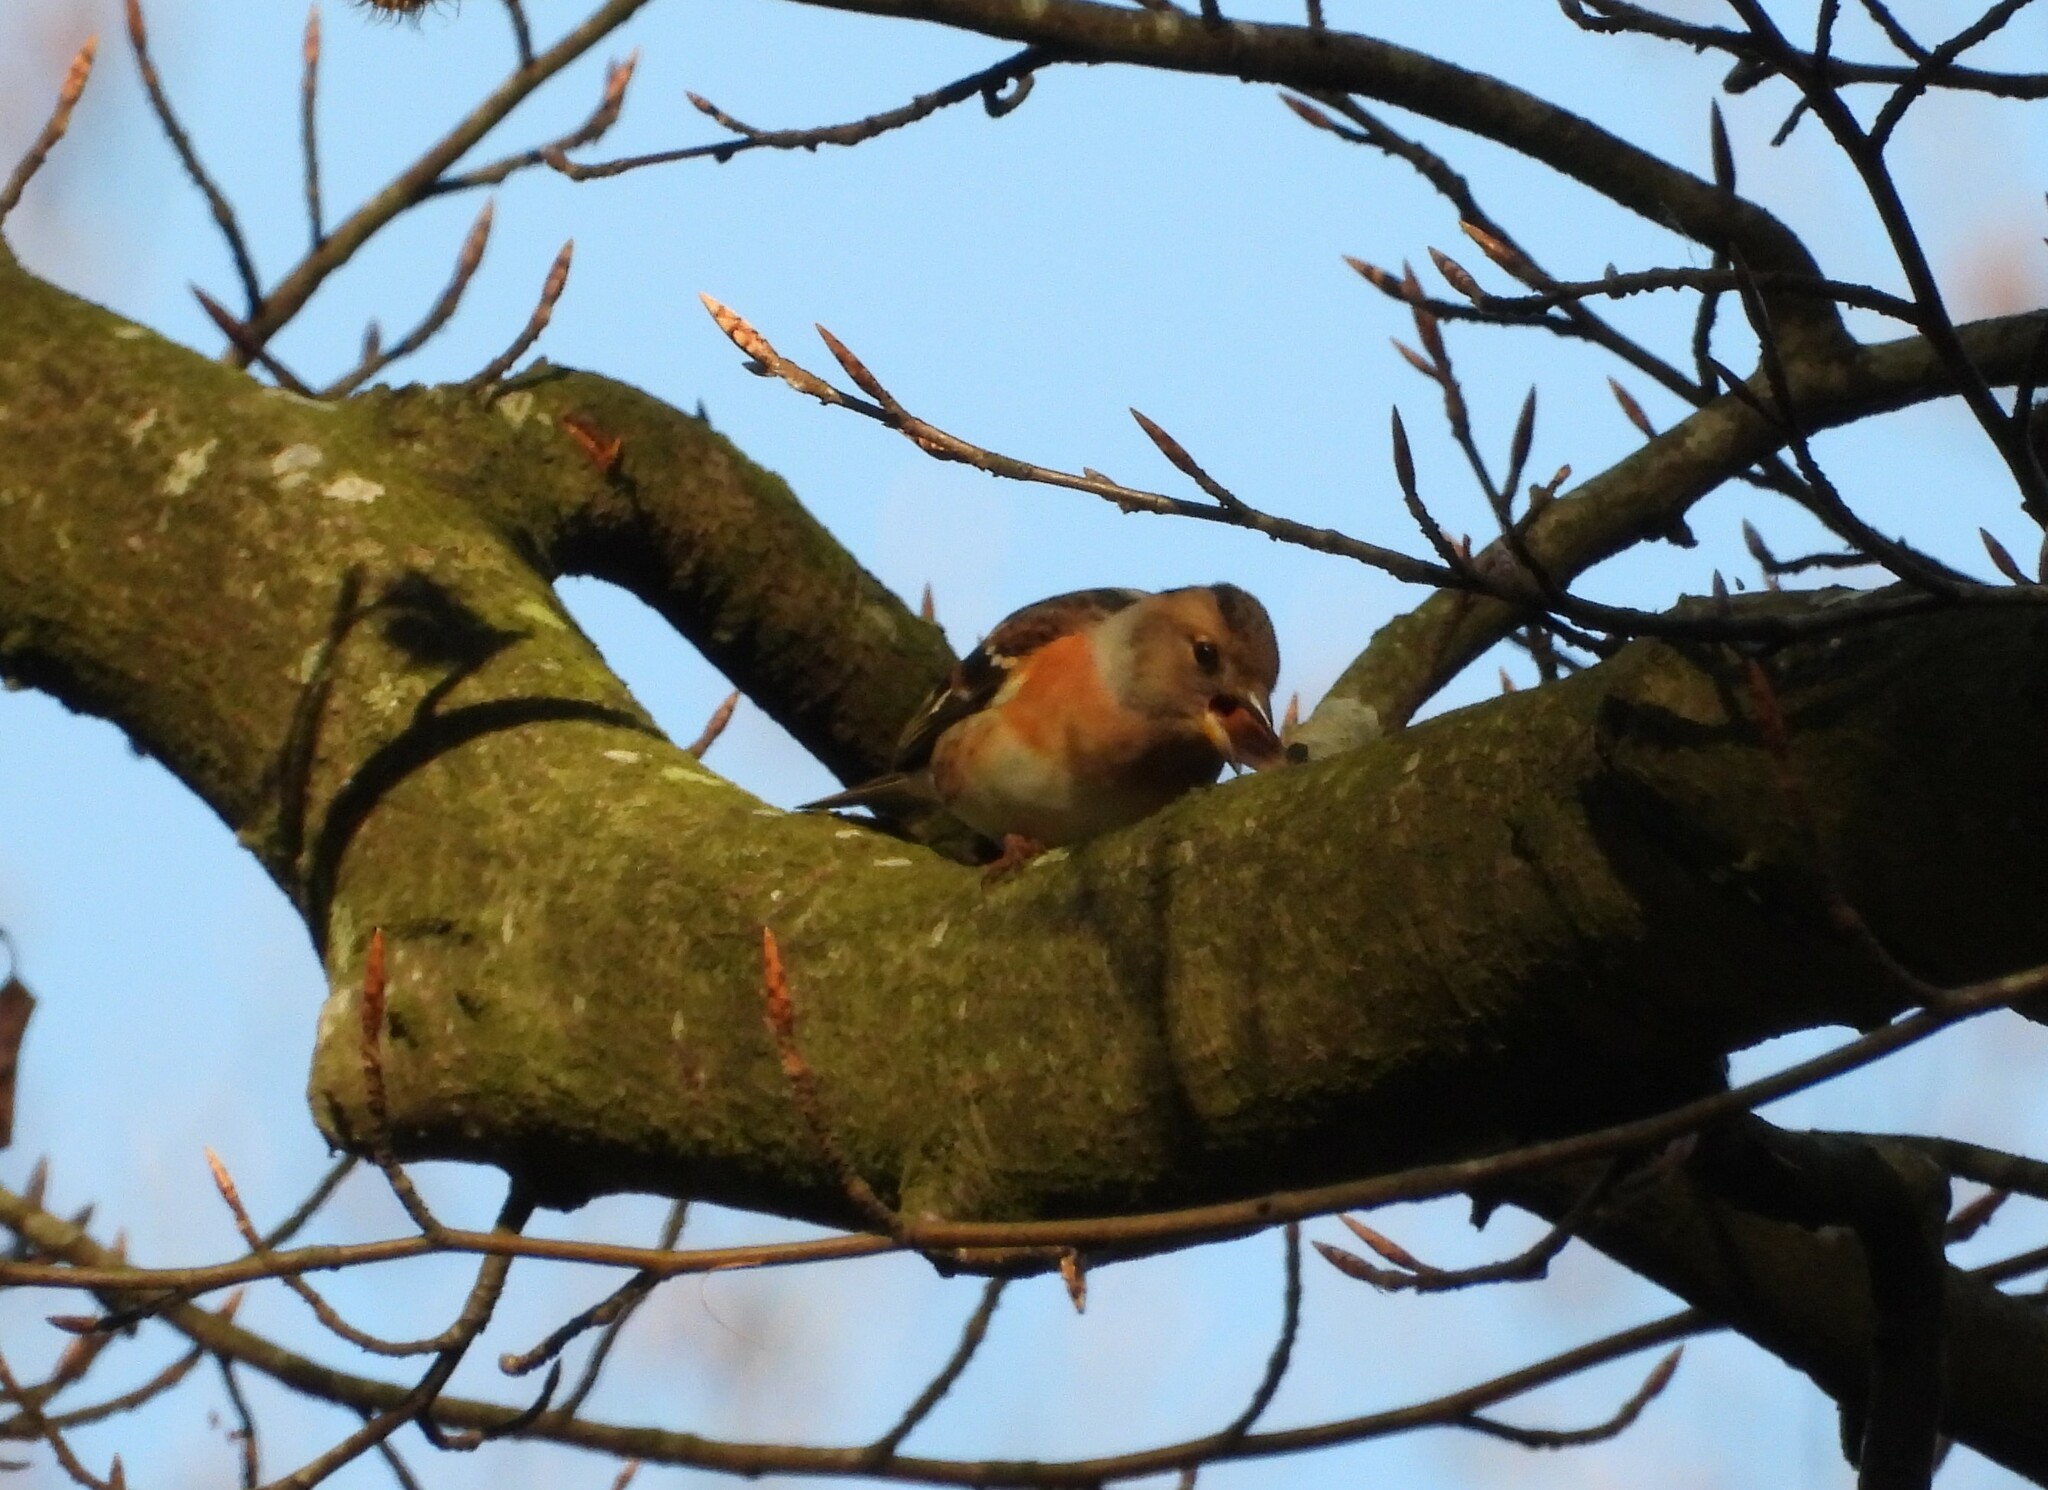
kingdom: Animalia
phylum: Chordata
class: Aves
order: Passeriformes
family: Fringillidae
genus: Fringilla
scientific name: Fringilla montifringilla
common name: Brambling
